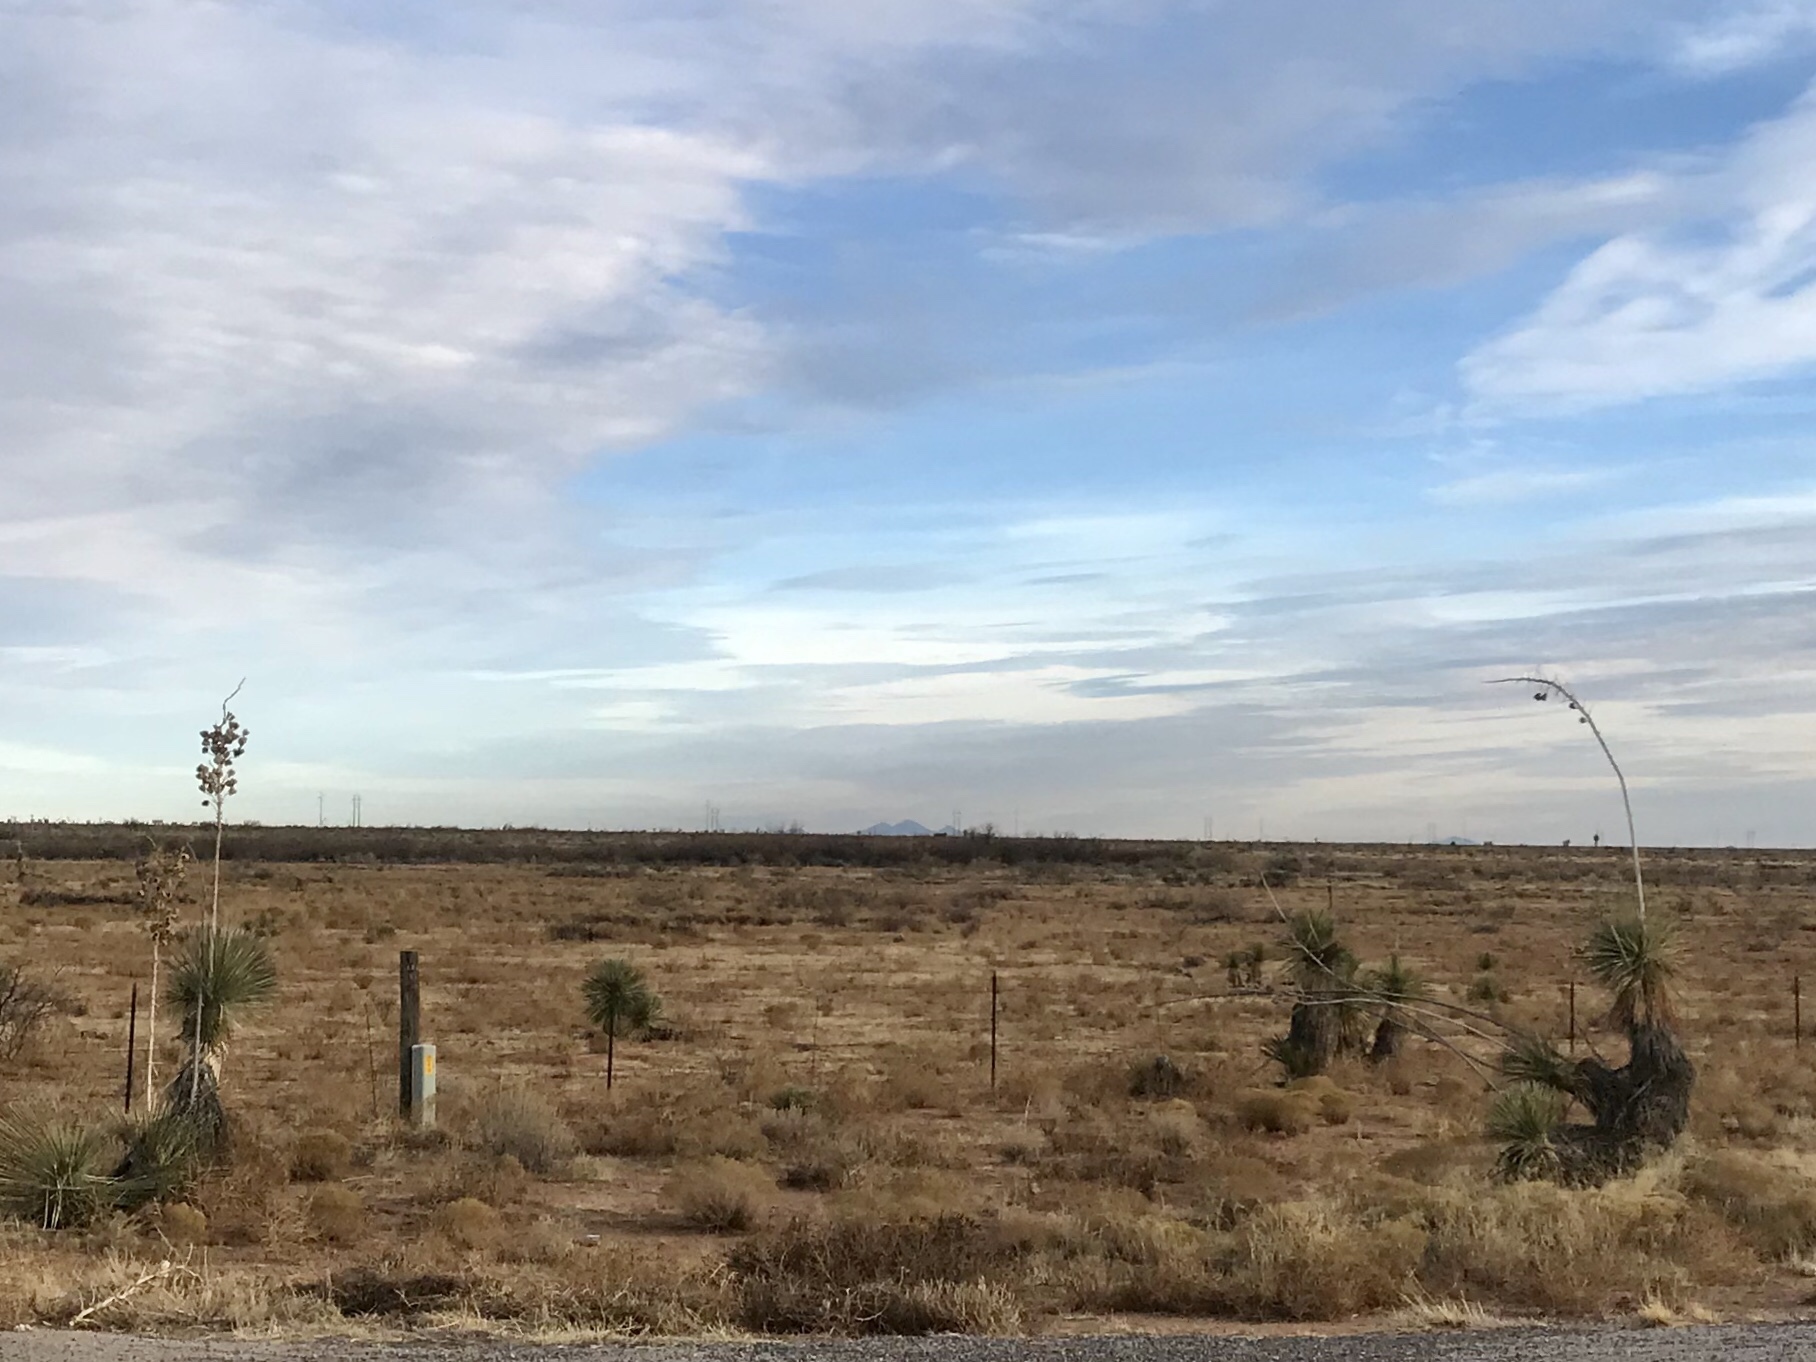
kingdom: Plantae
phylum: Tracheophyta
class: Liliopsida
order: Asparagales
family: Asparagaceae
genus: Yucca
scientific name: Yucca elata
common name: Palmella
